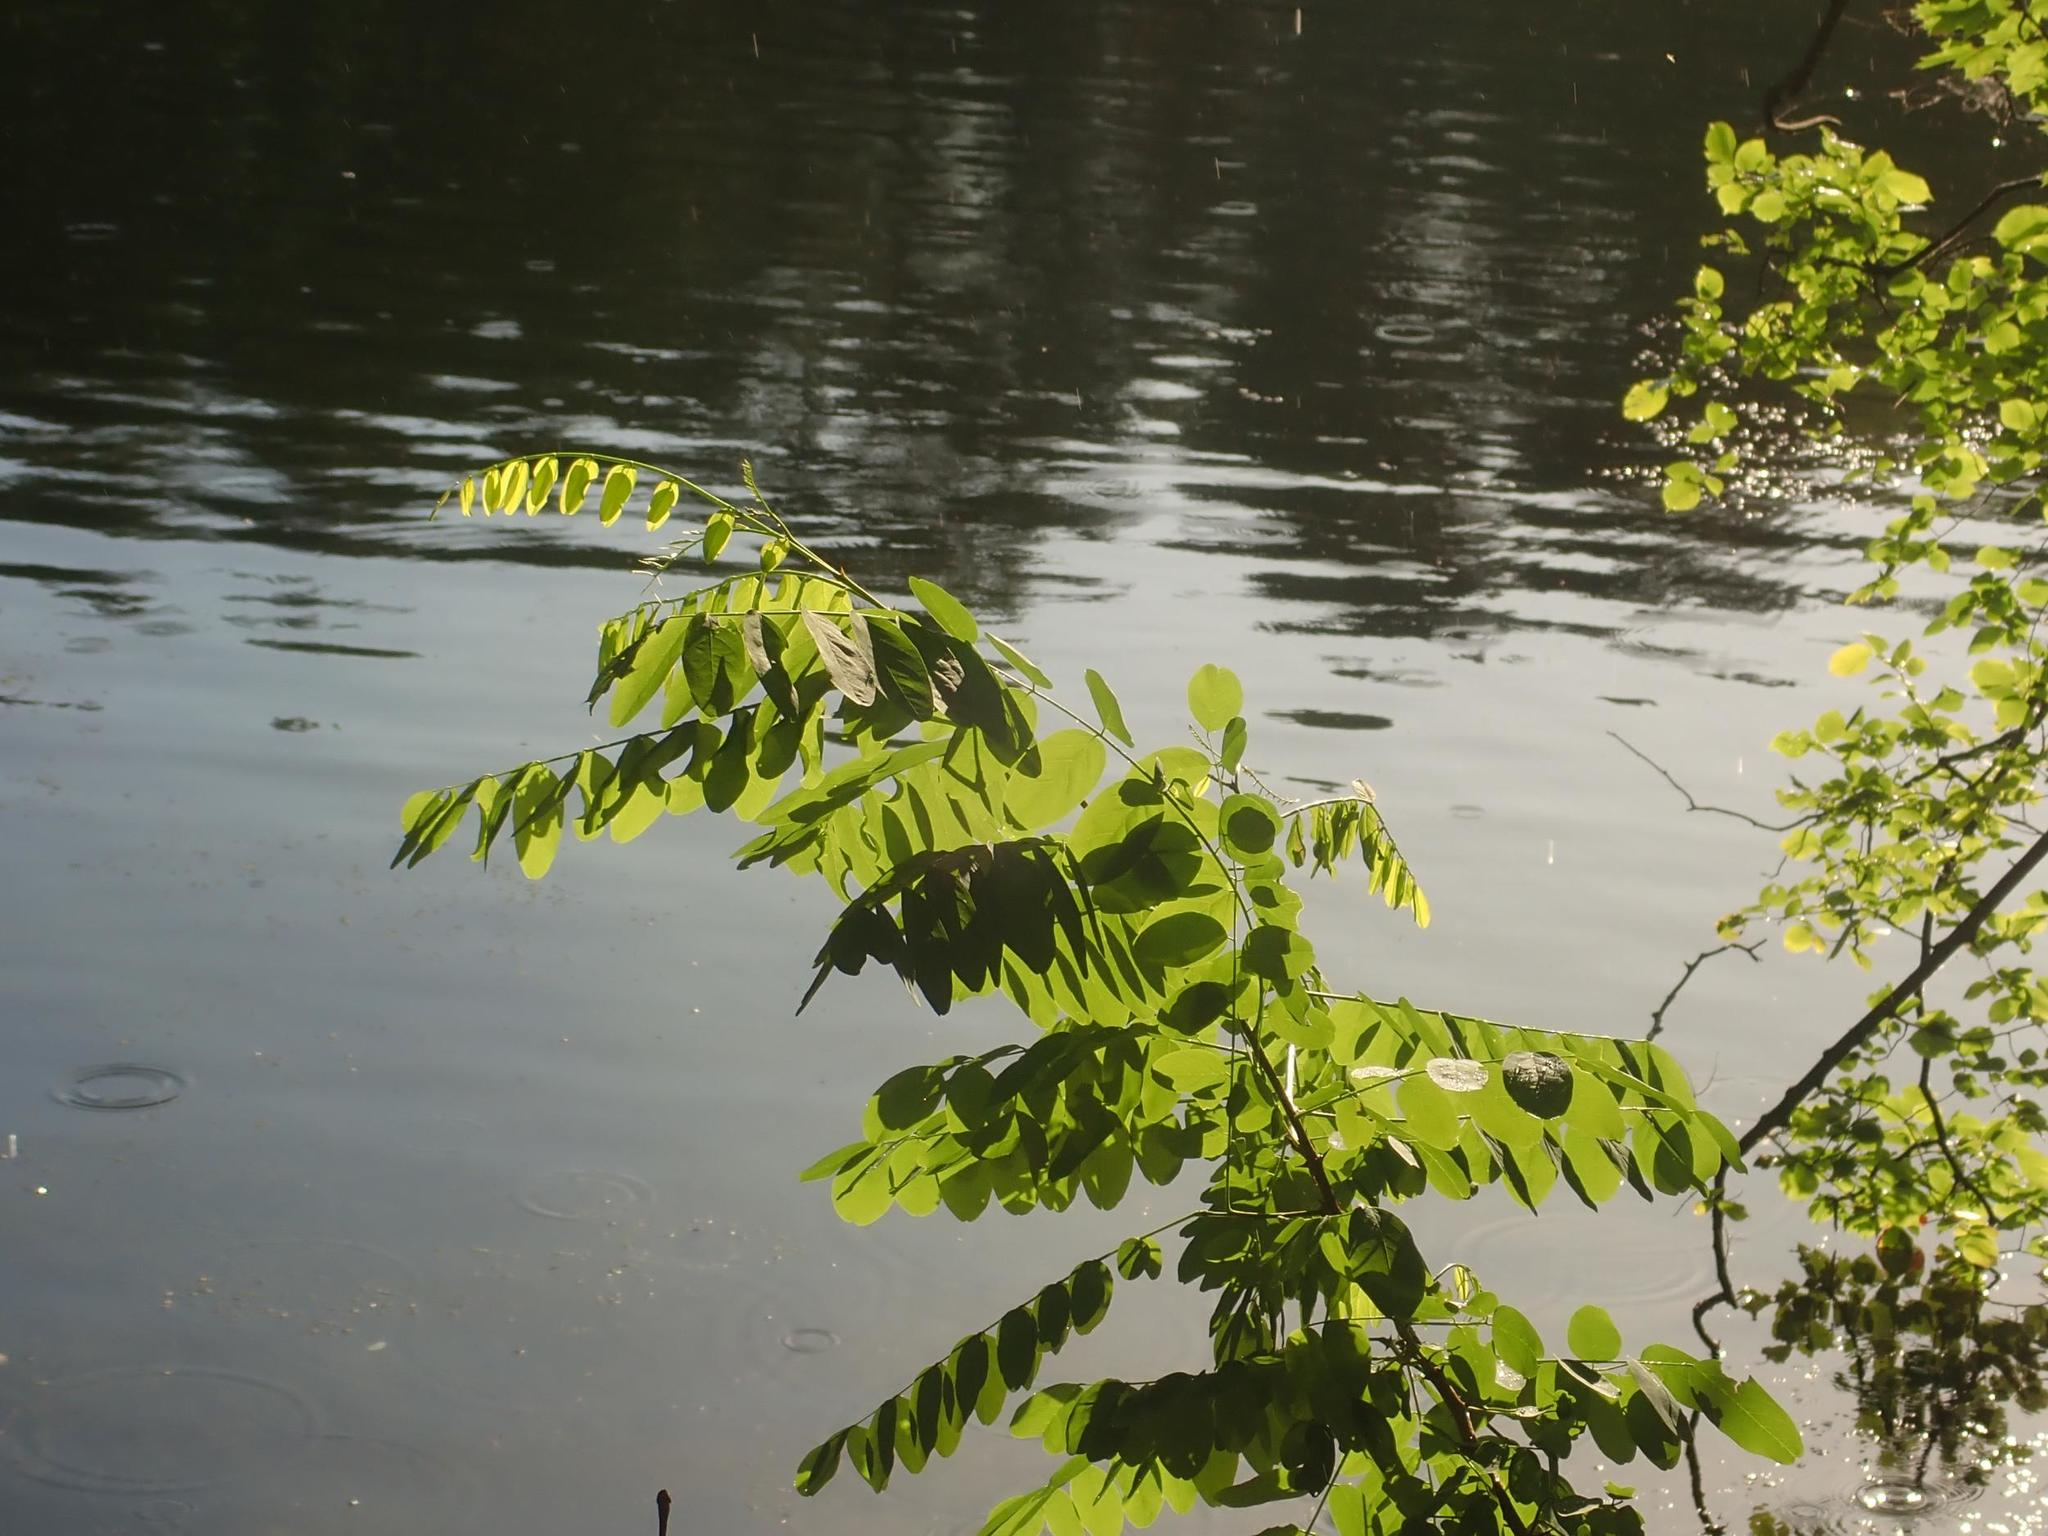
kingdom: Plantae
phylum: Tracheophyta
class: Magnoliopsida
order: Fabales
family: Fabaceae
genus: Robinia
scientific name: Robinia pseudoacacia
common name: Black locust
